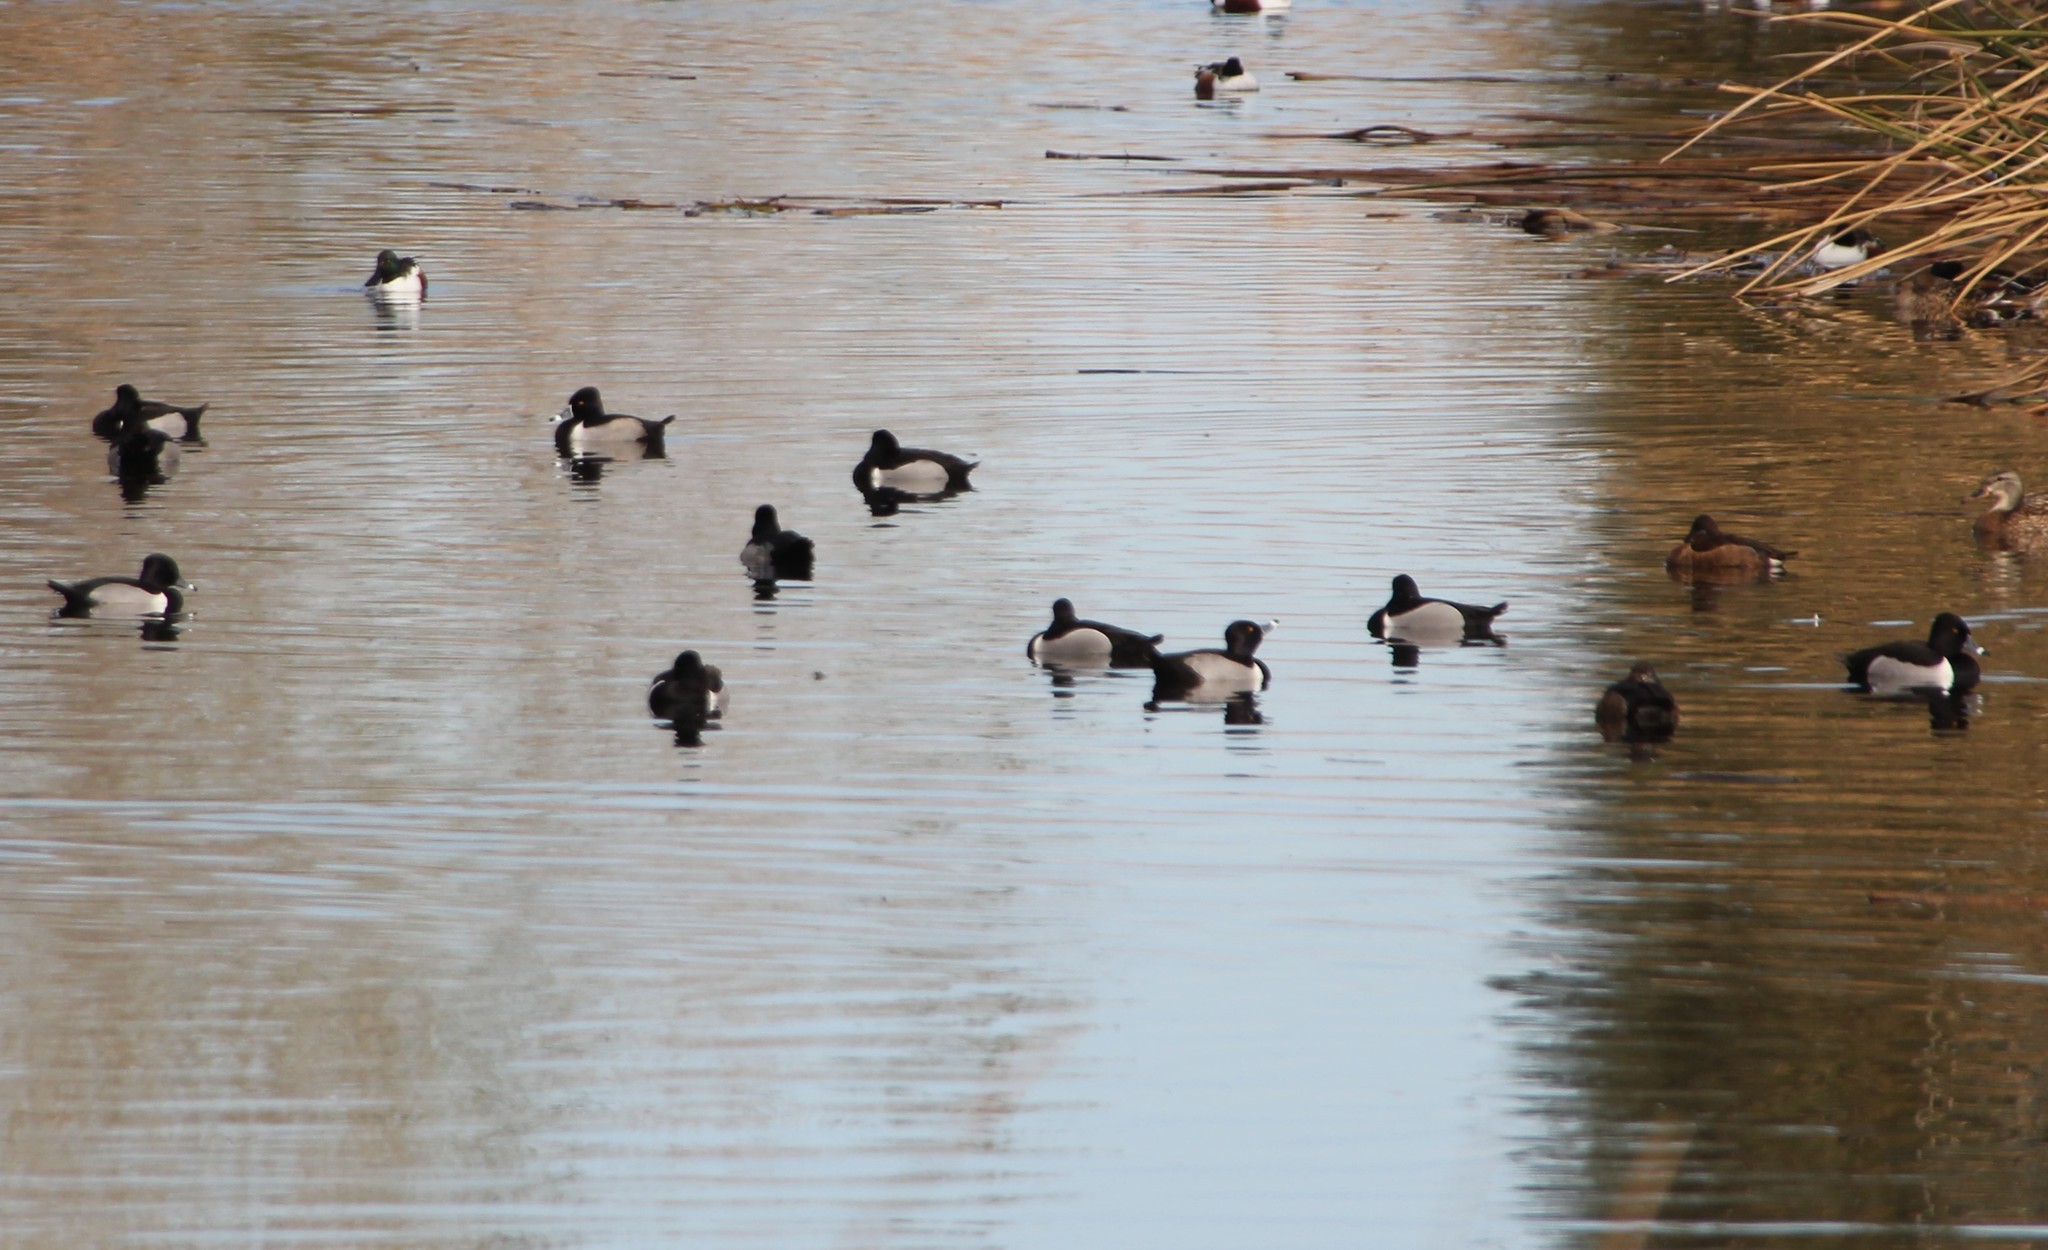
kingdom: Animalia
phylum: Chordata
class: Aves
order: Anseriformes
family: Anatidae
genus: Aythya
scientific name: Aythya collaris
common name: Ring-necked duck
